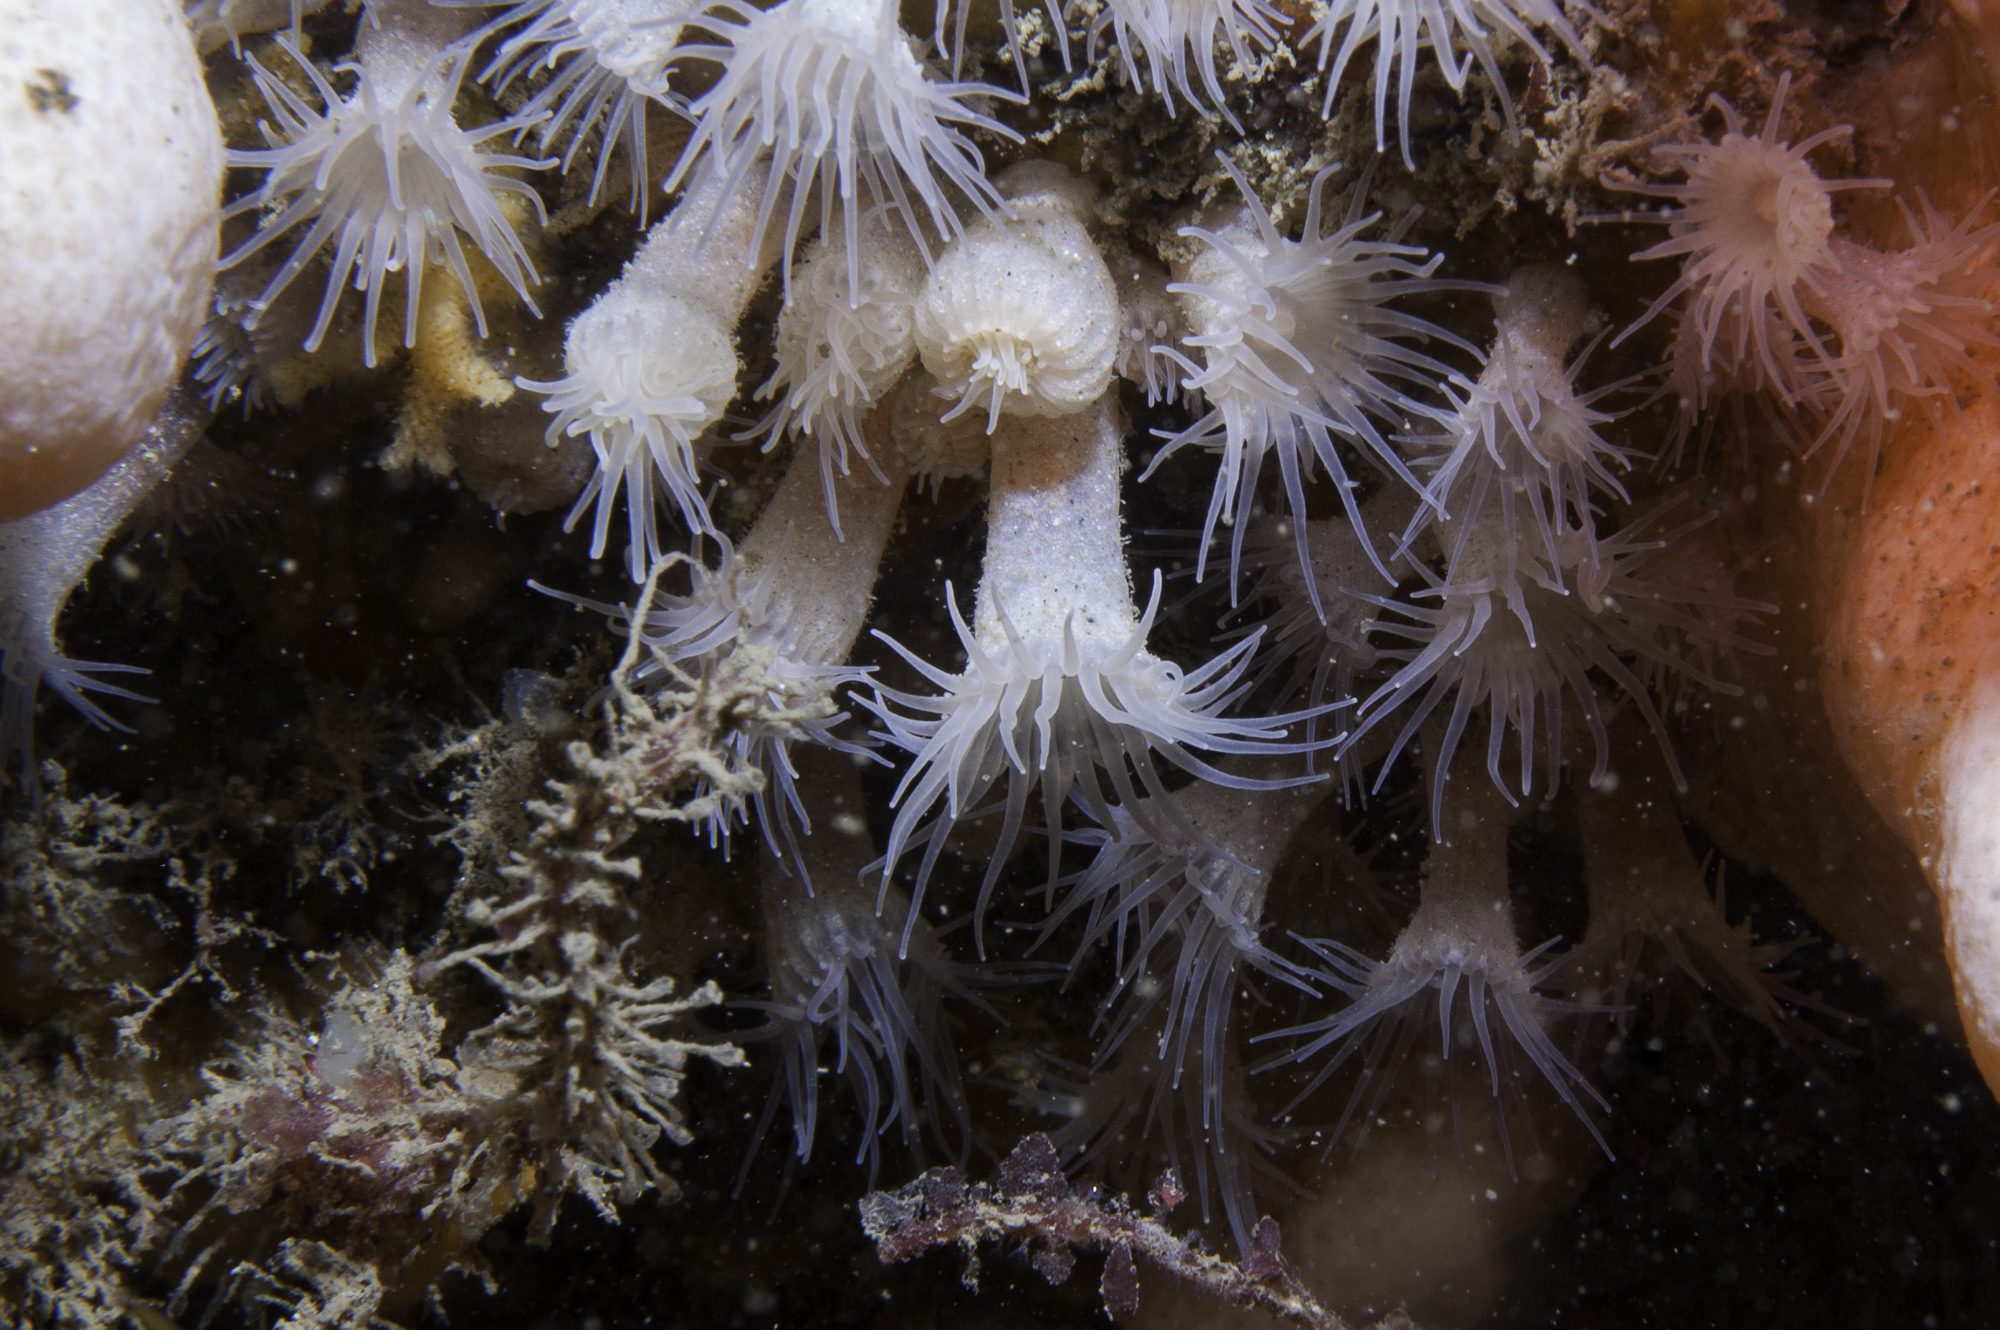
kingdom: Animalia
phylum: Cnidaria
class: Anthozoa
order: Zoantharia
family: Parazoanthidae
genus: Parazoanthus
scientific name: Parazoanthus anguicomus
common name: White cluster anemone
